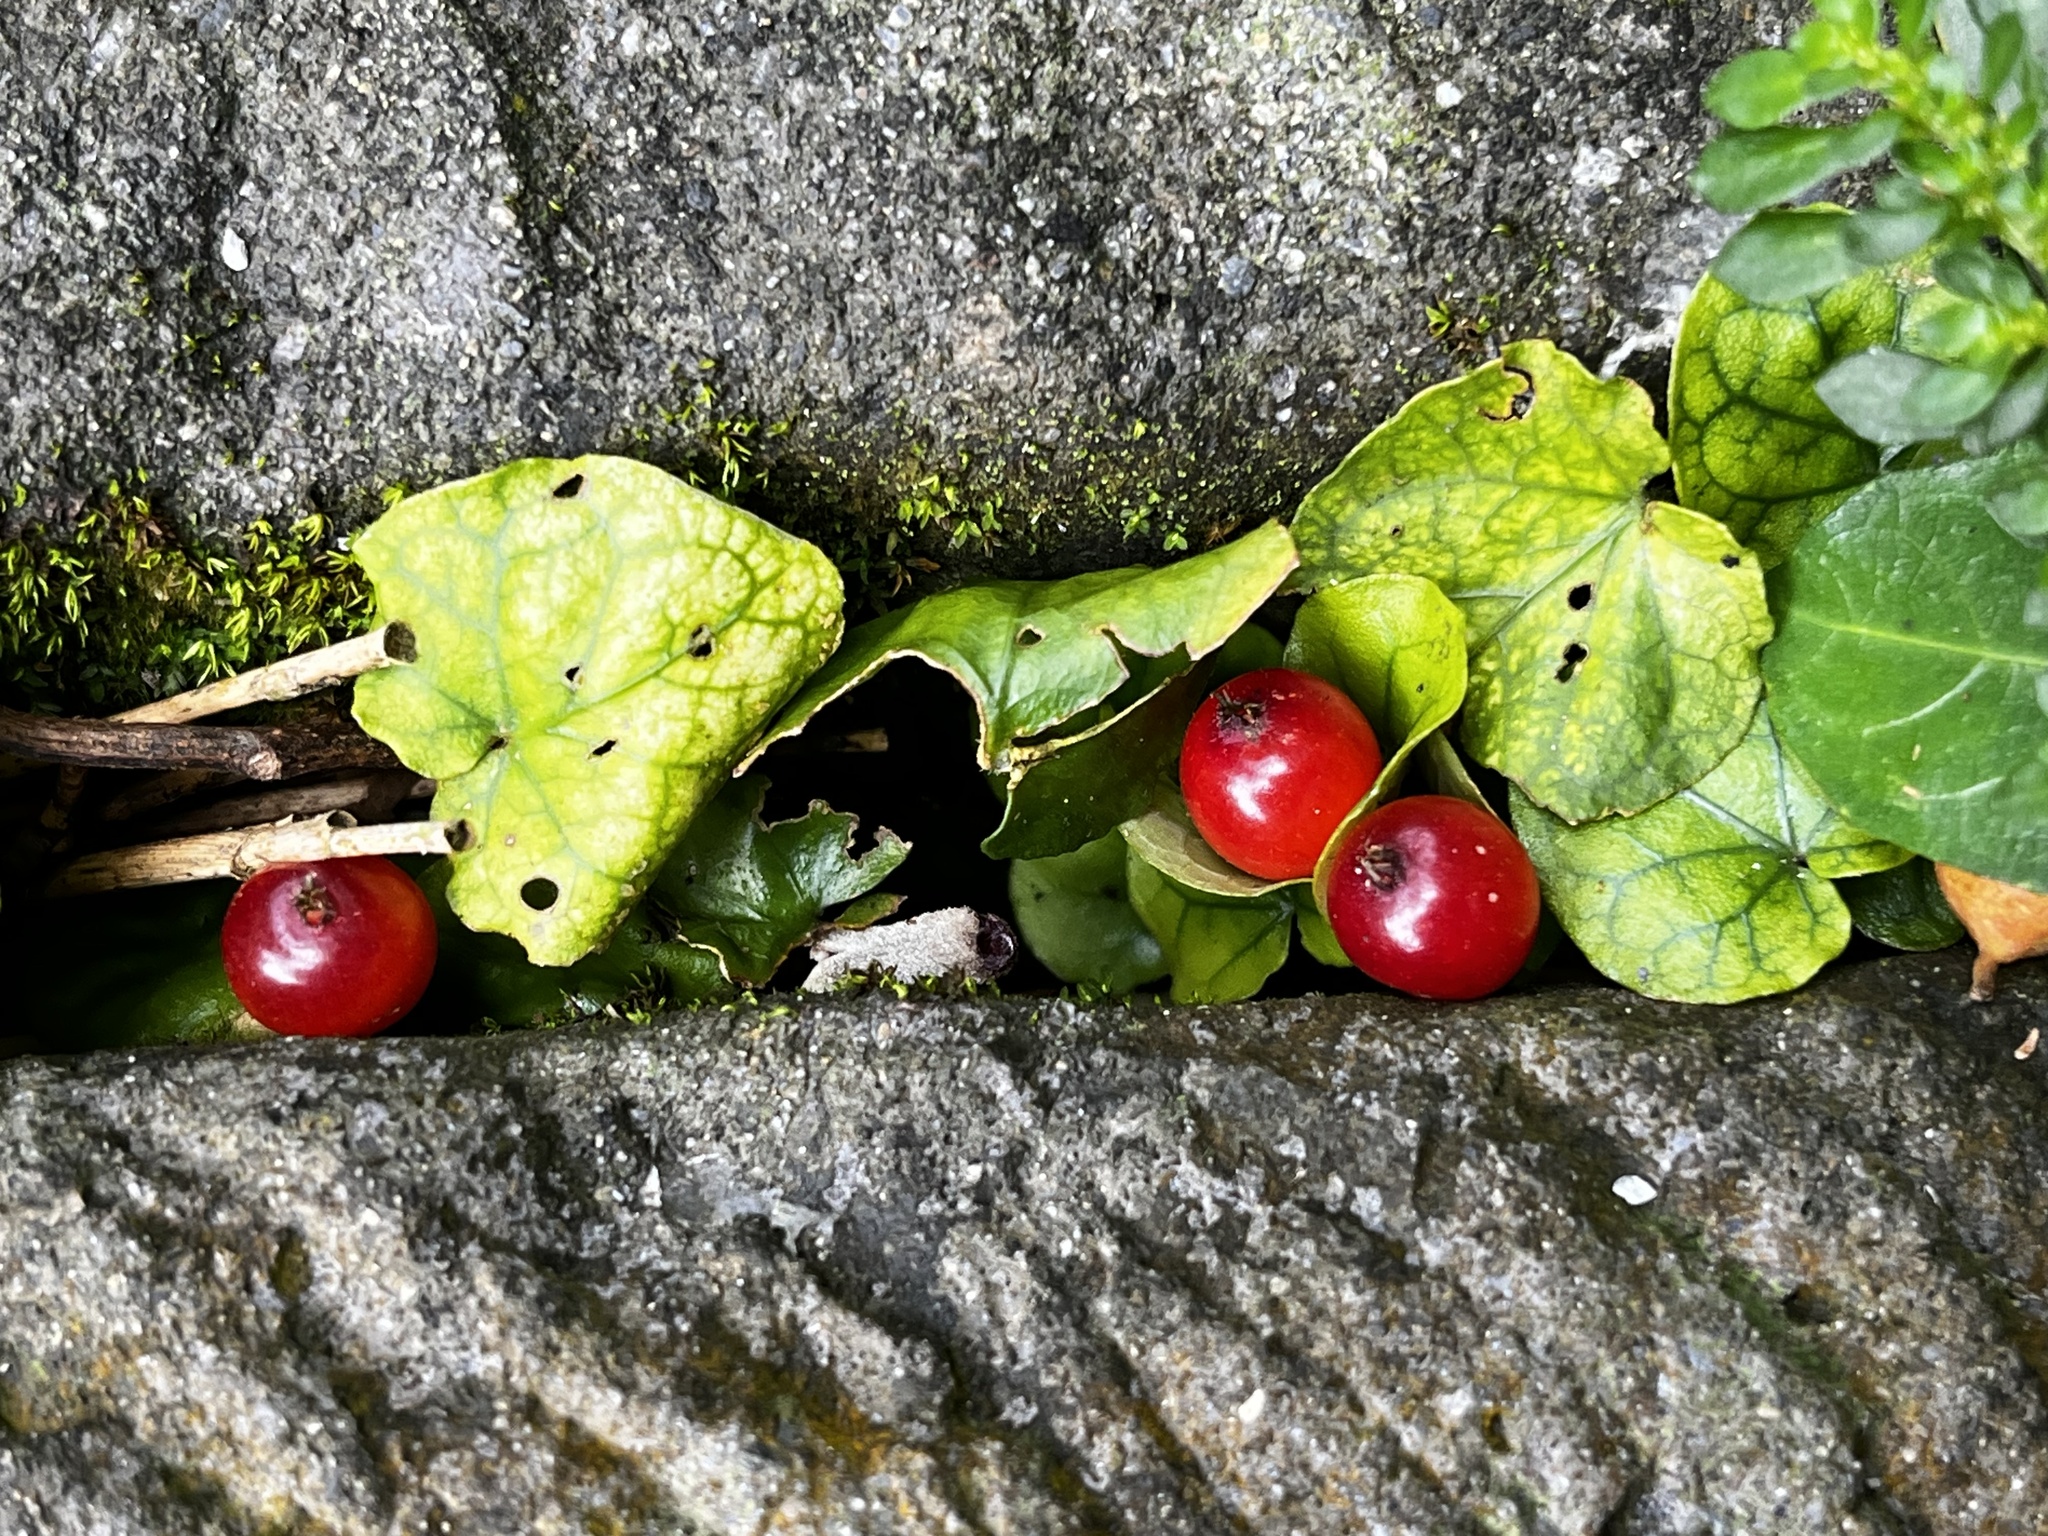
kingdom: Plantae
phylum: Tracheophyta
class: Magnoliopsida
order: Gentianales
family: Rubiaceae
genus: Geophila
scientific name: Geophila herbacea
